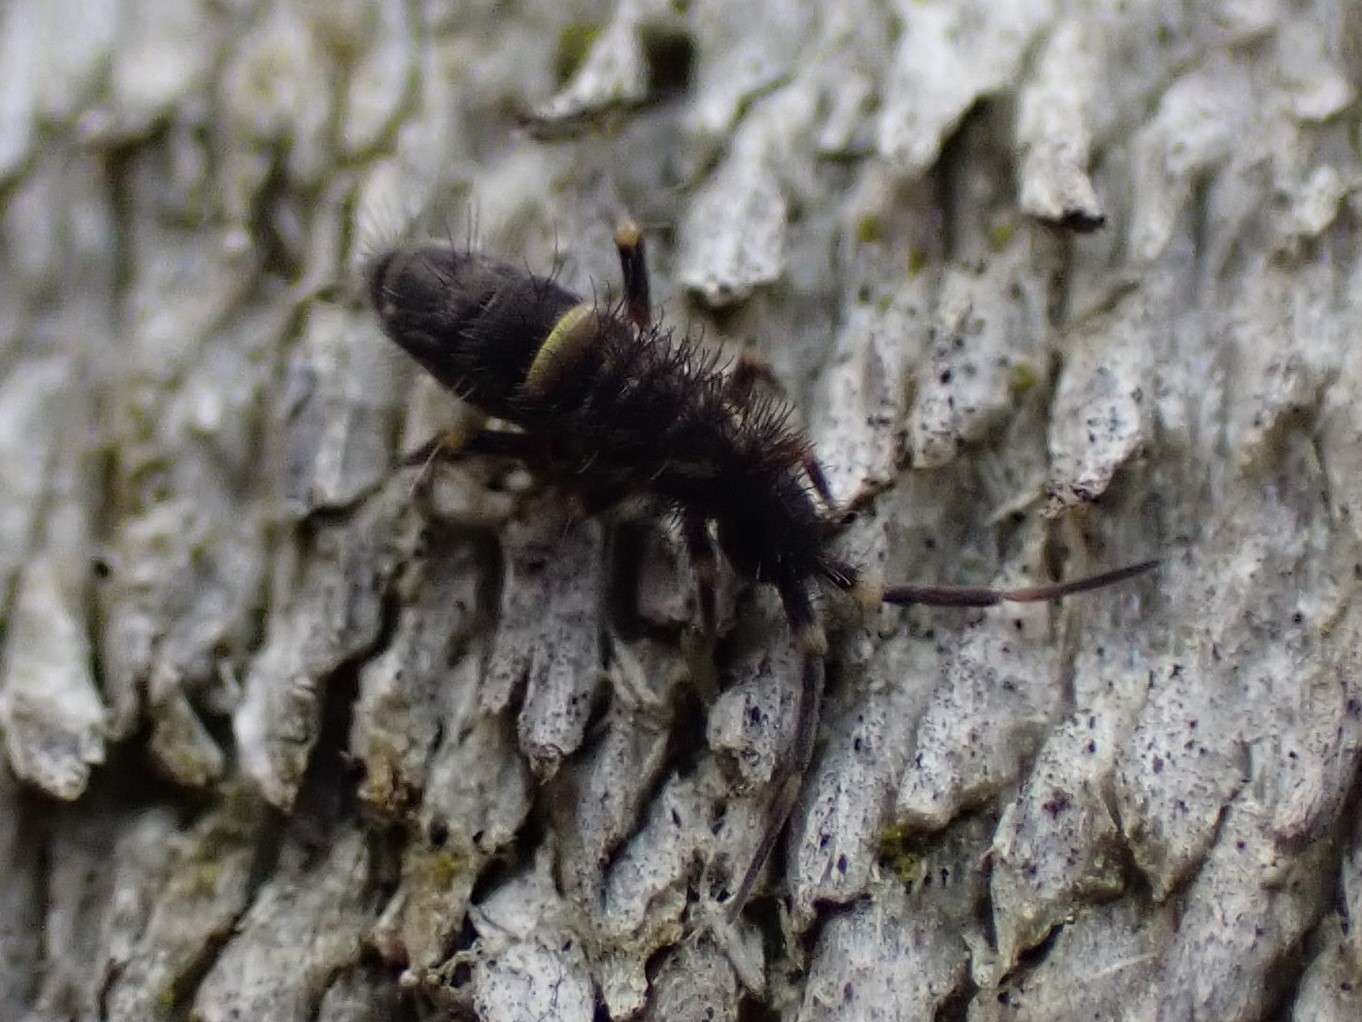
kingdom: Animalia
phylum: Arthropoda
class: Collembola
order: Entomobryomorpha
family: Orchesellidae
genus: Orchesella
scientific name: Orchesella cincta
